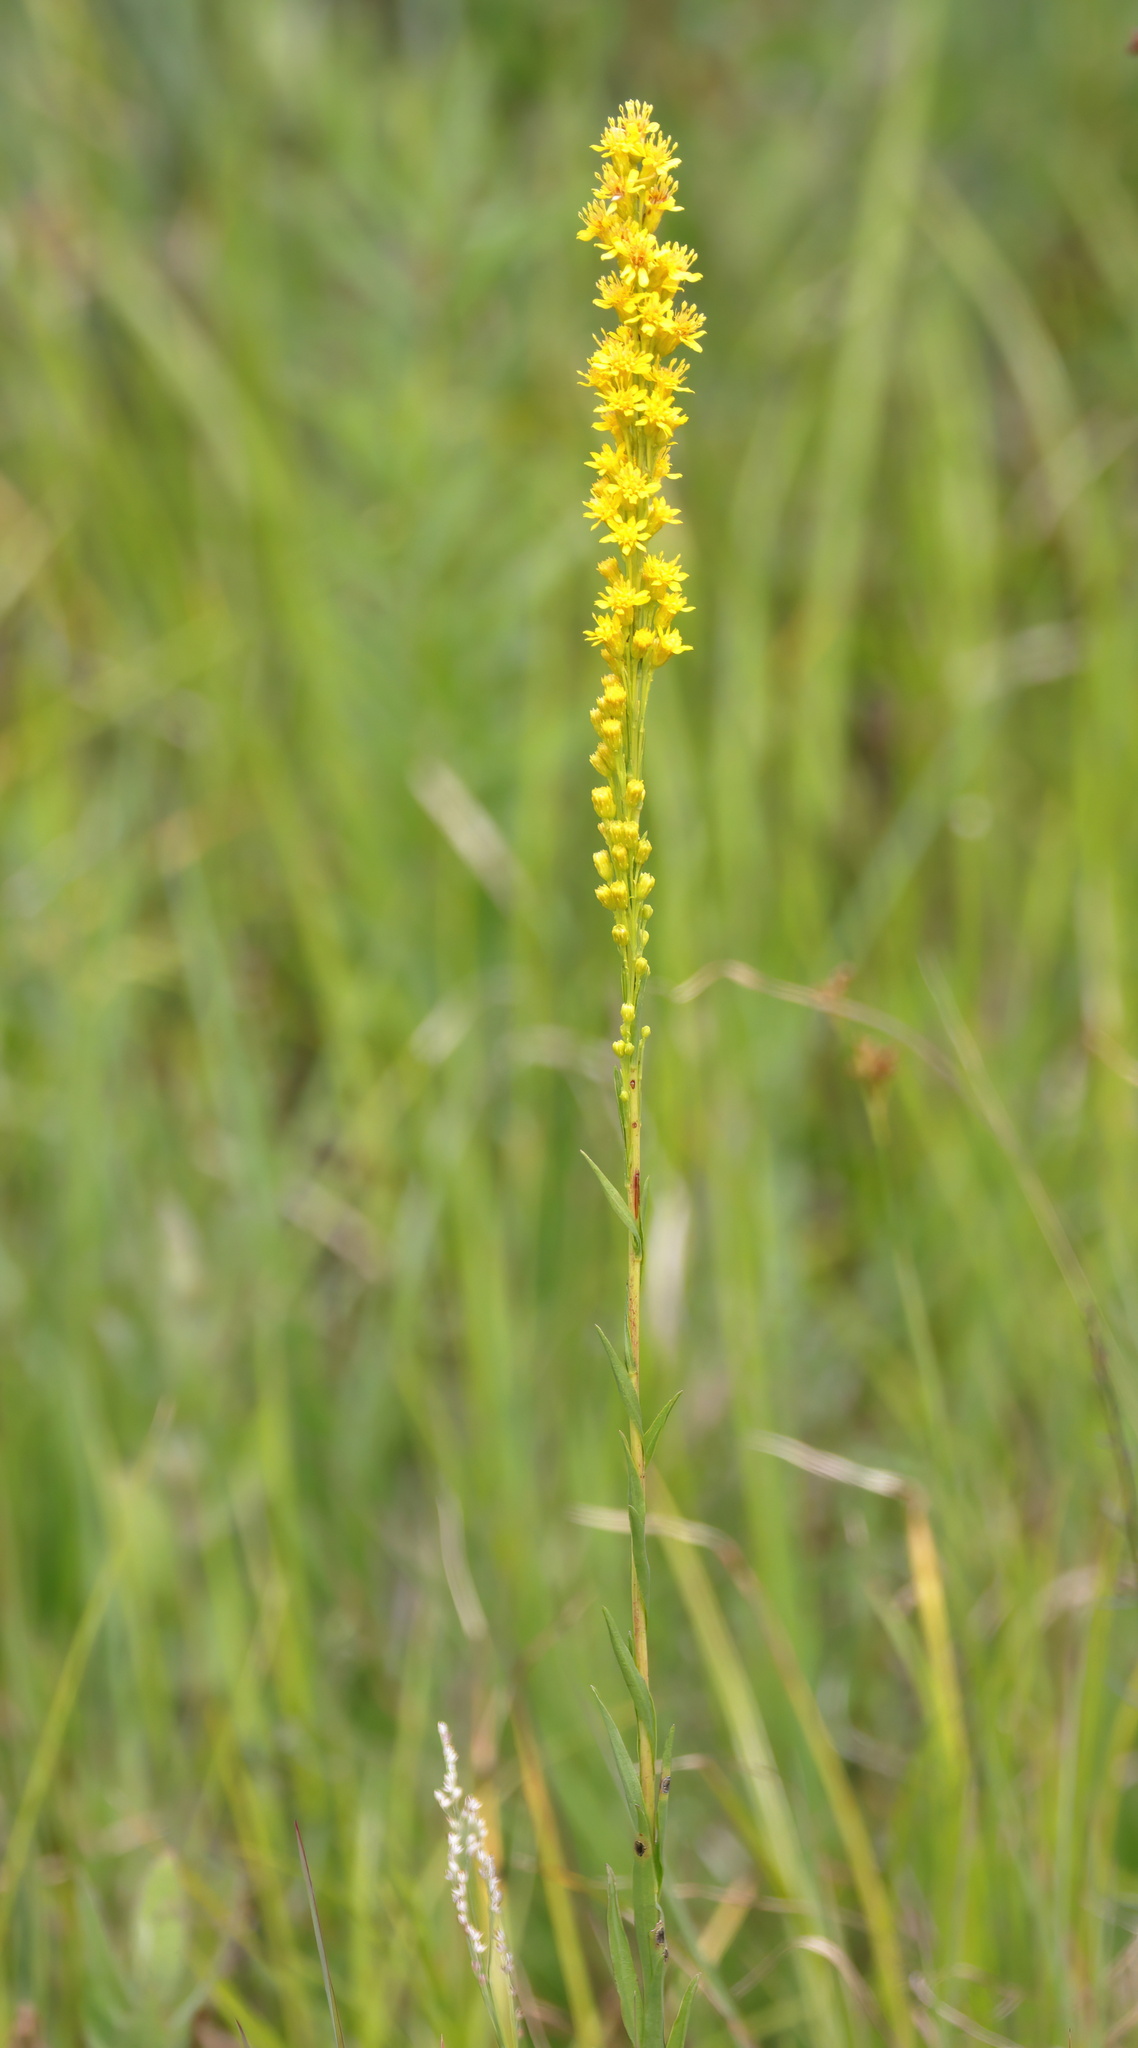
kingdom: Plantae
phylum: Tracheophyta
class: Magnoliopsida
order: Asterales
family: Asteraceae
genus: Solidago
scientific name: Solidago mexicana
